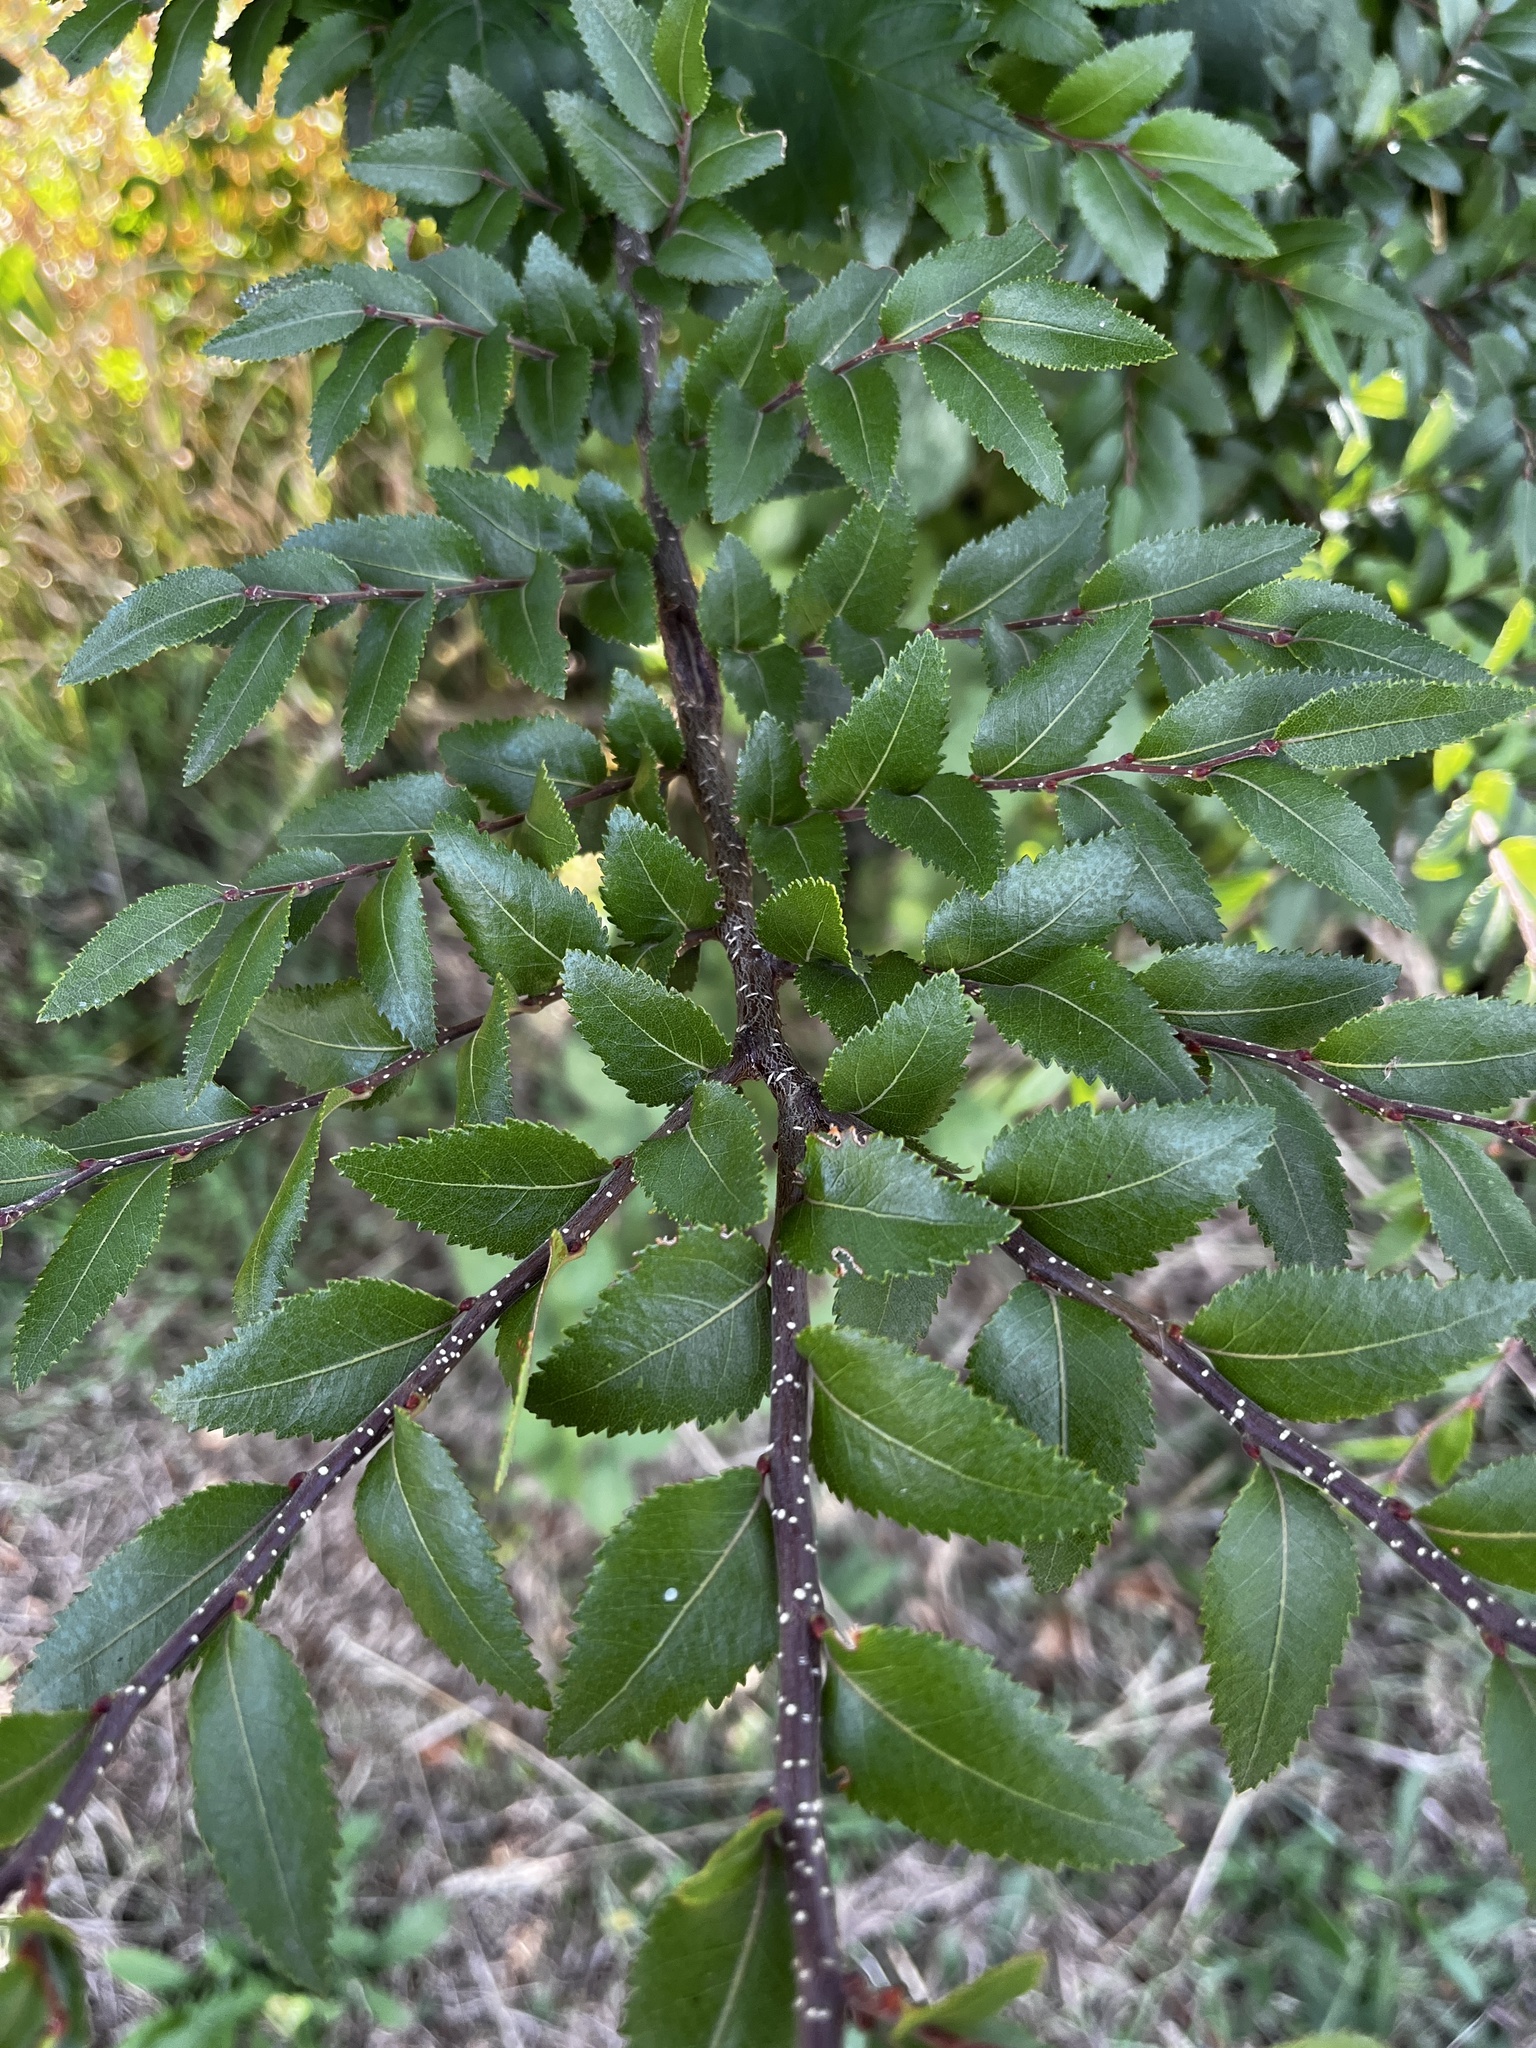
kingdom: Plantae
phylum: Tracheophyta
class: Magnoliopsida
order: Fagales
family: Nothofagaceae
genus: Nothofagus
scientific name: Nothofagus dombeyi
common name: Coigue
